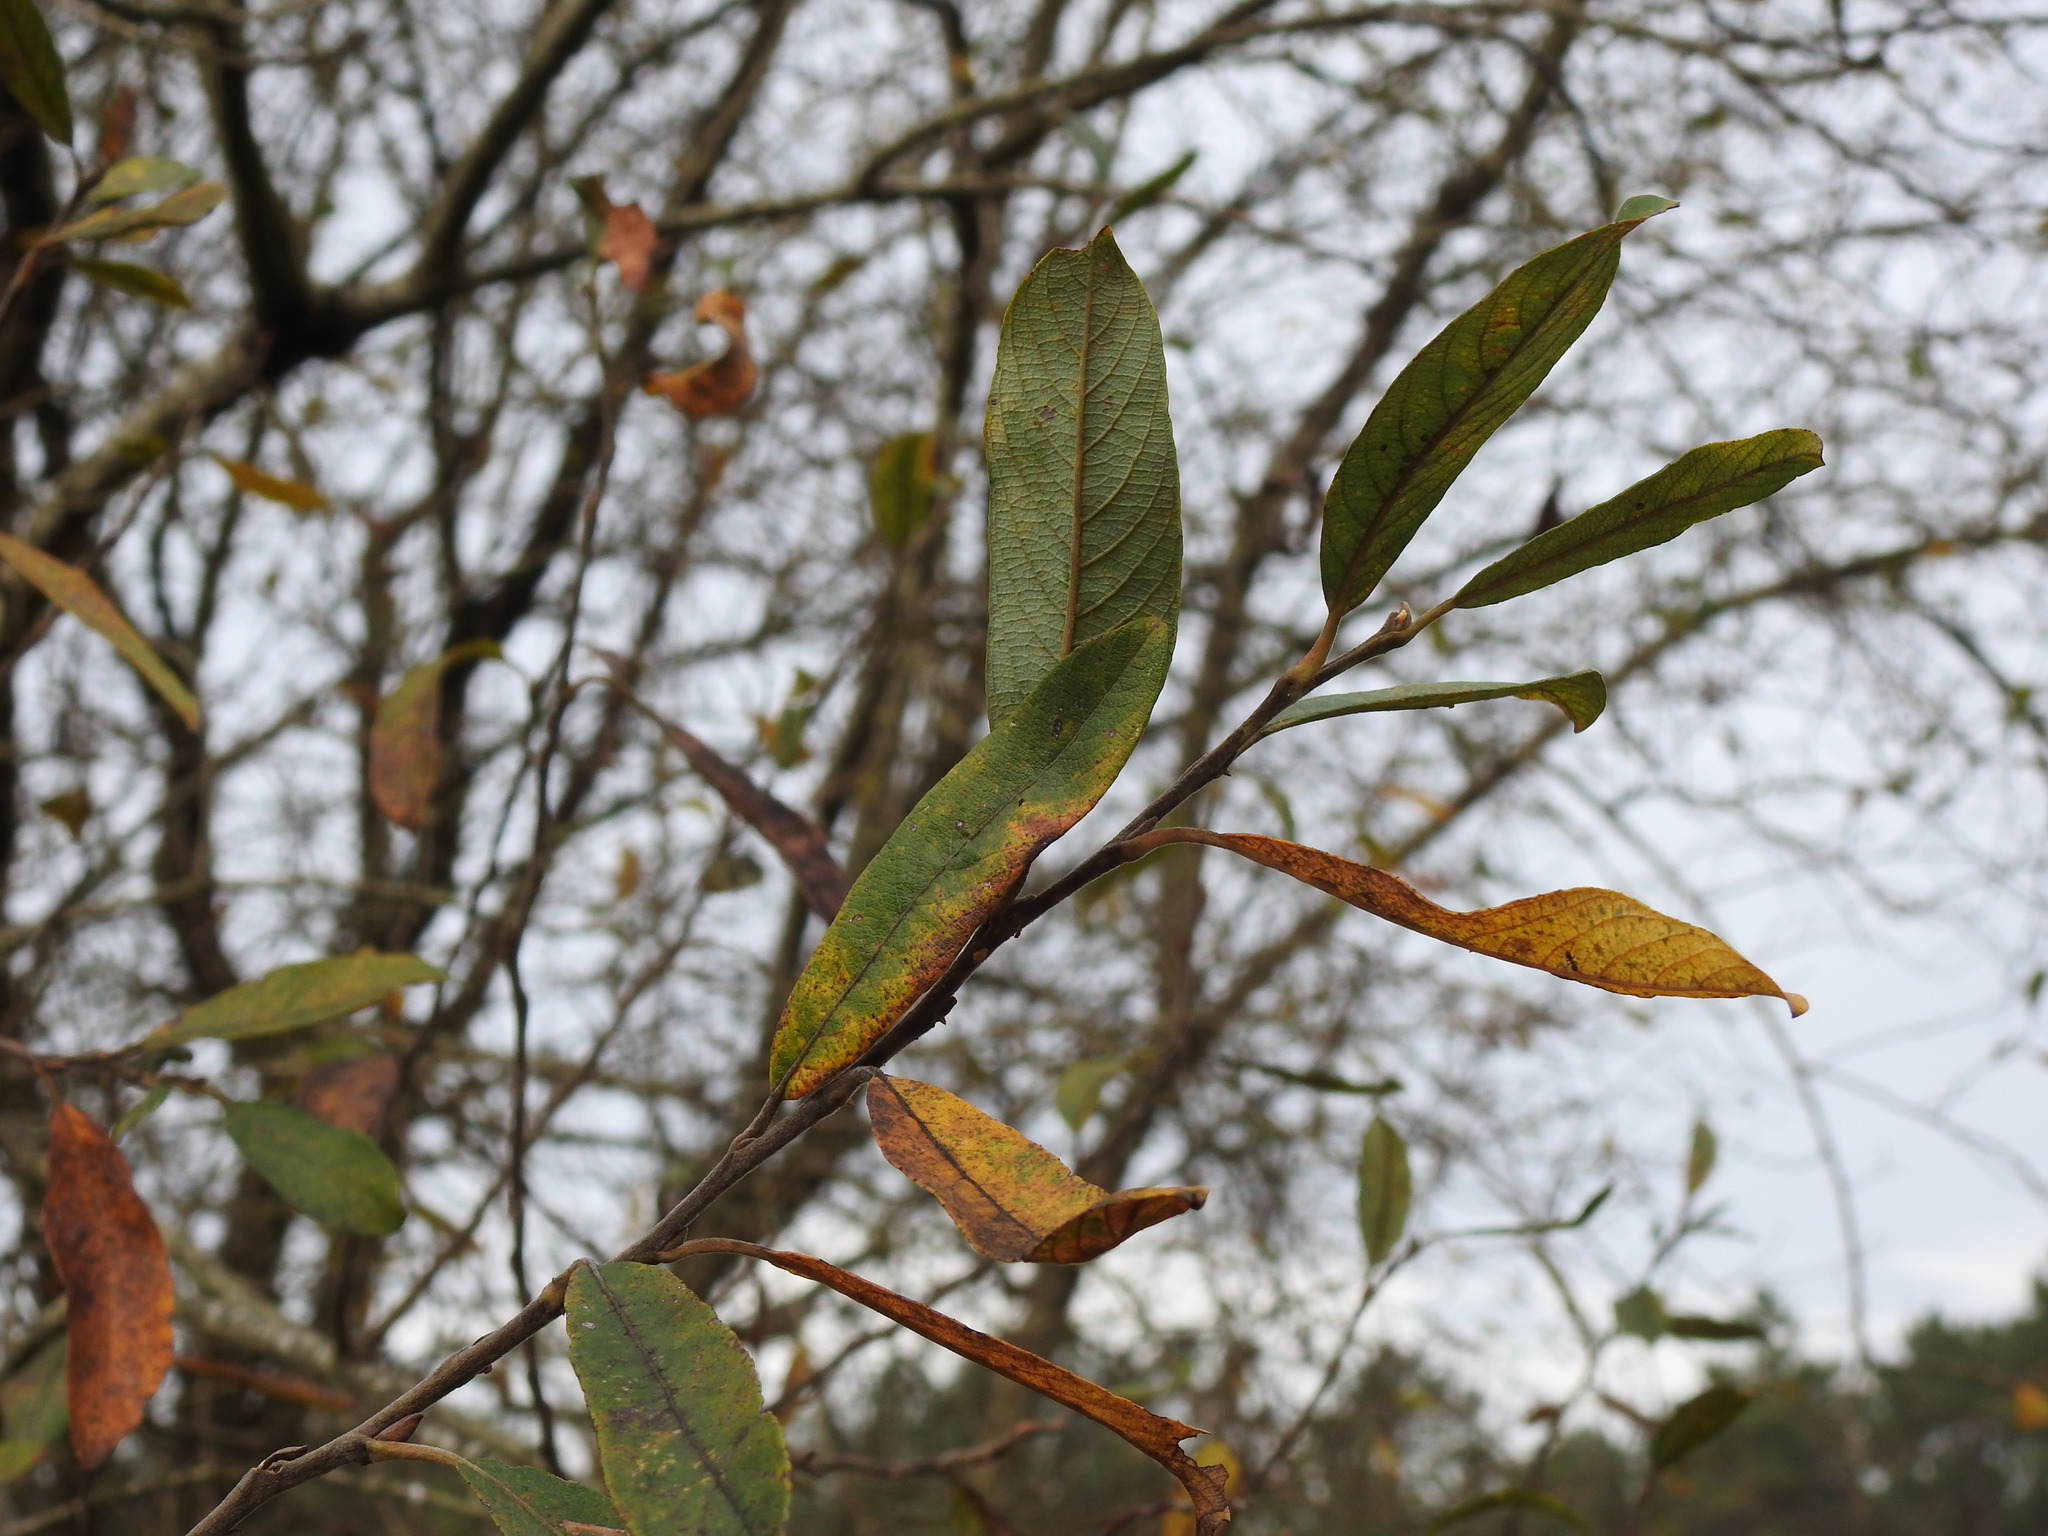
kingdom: Plantae
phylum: Tracheophyta
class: Magnoliopsida
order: Malpighiales
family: Salicaceae
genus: Salix
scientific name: Salix atrocinerea
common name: Rusty willow
